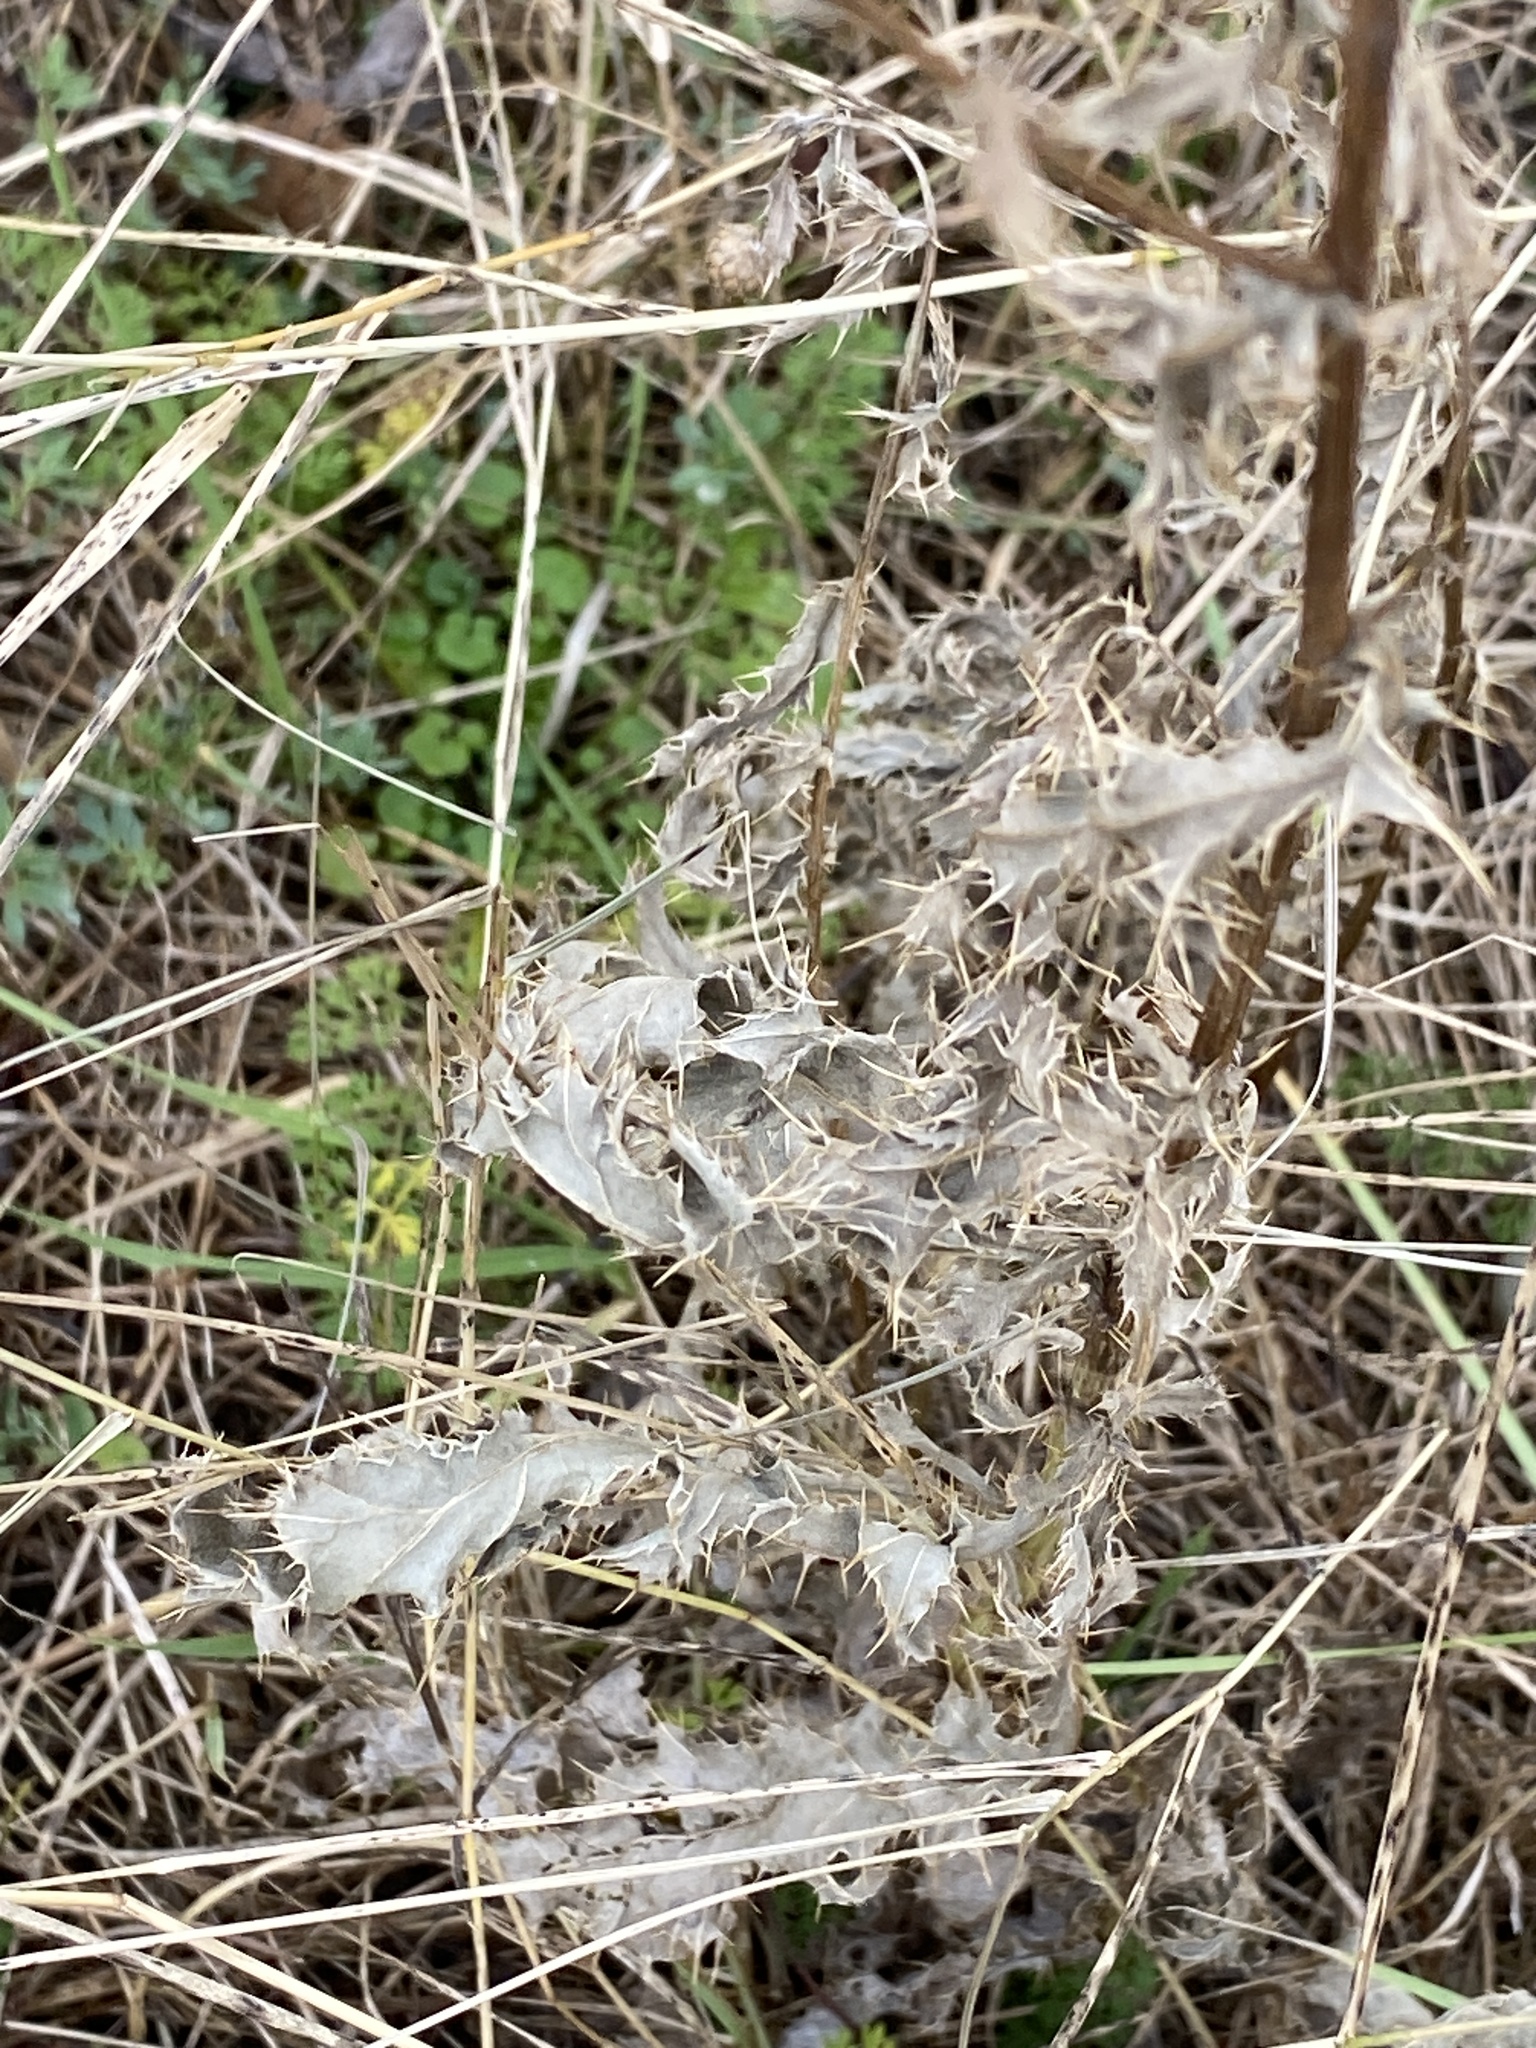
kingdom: Plantae
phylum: Tracheophyta
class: Magnoliopsida
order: Asterales
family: Asteraceae
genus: Cirsium
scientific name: Cirsium arvense
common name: Creeping thistle
